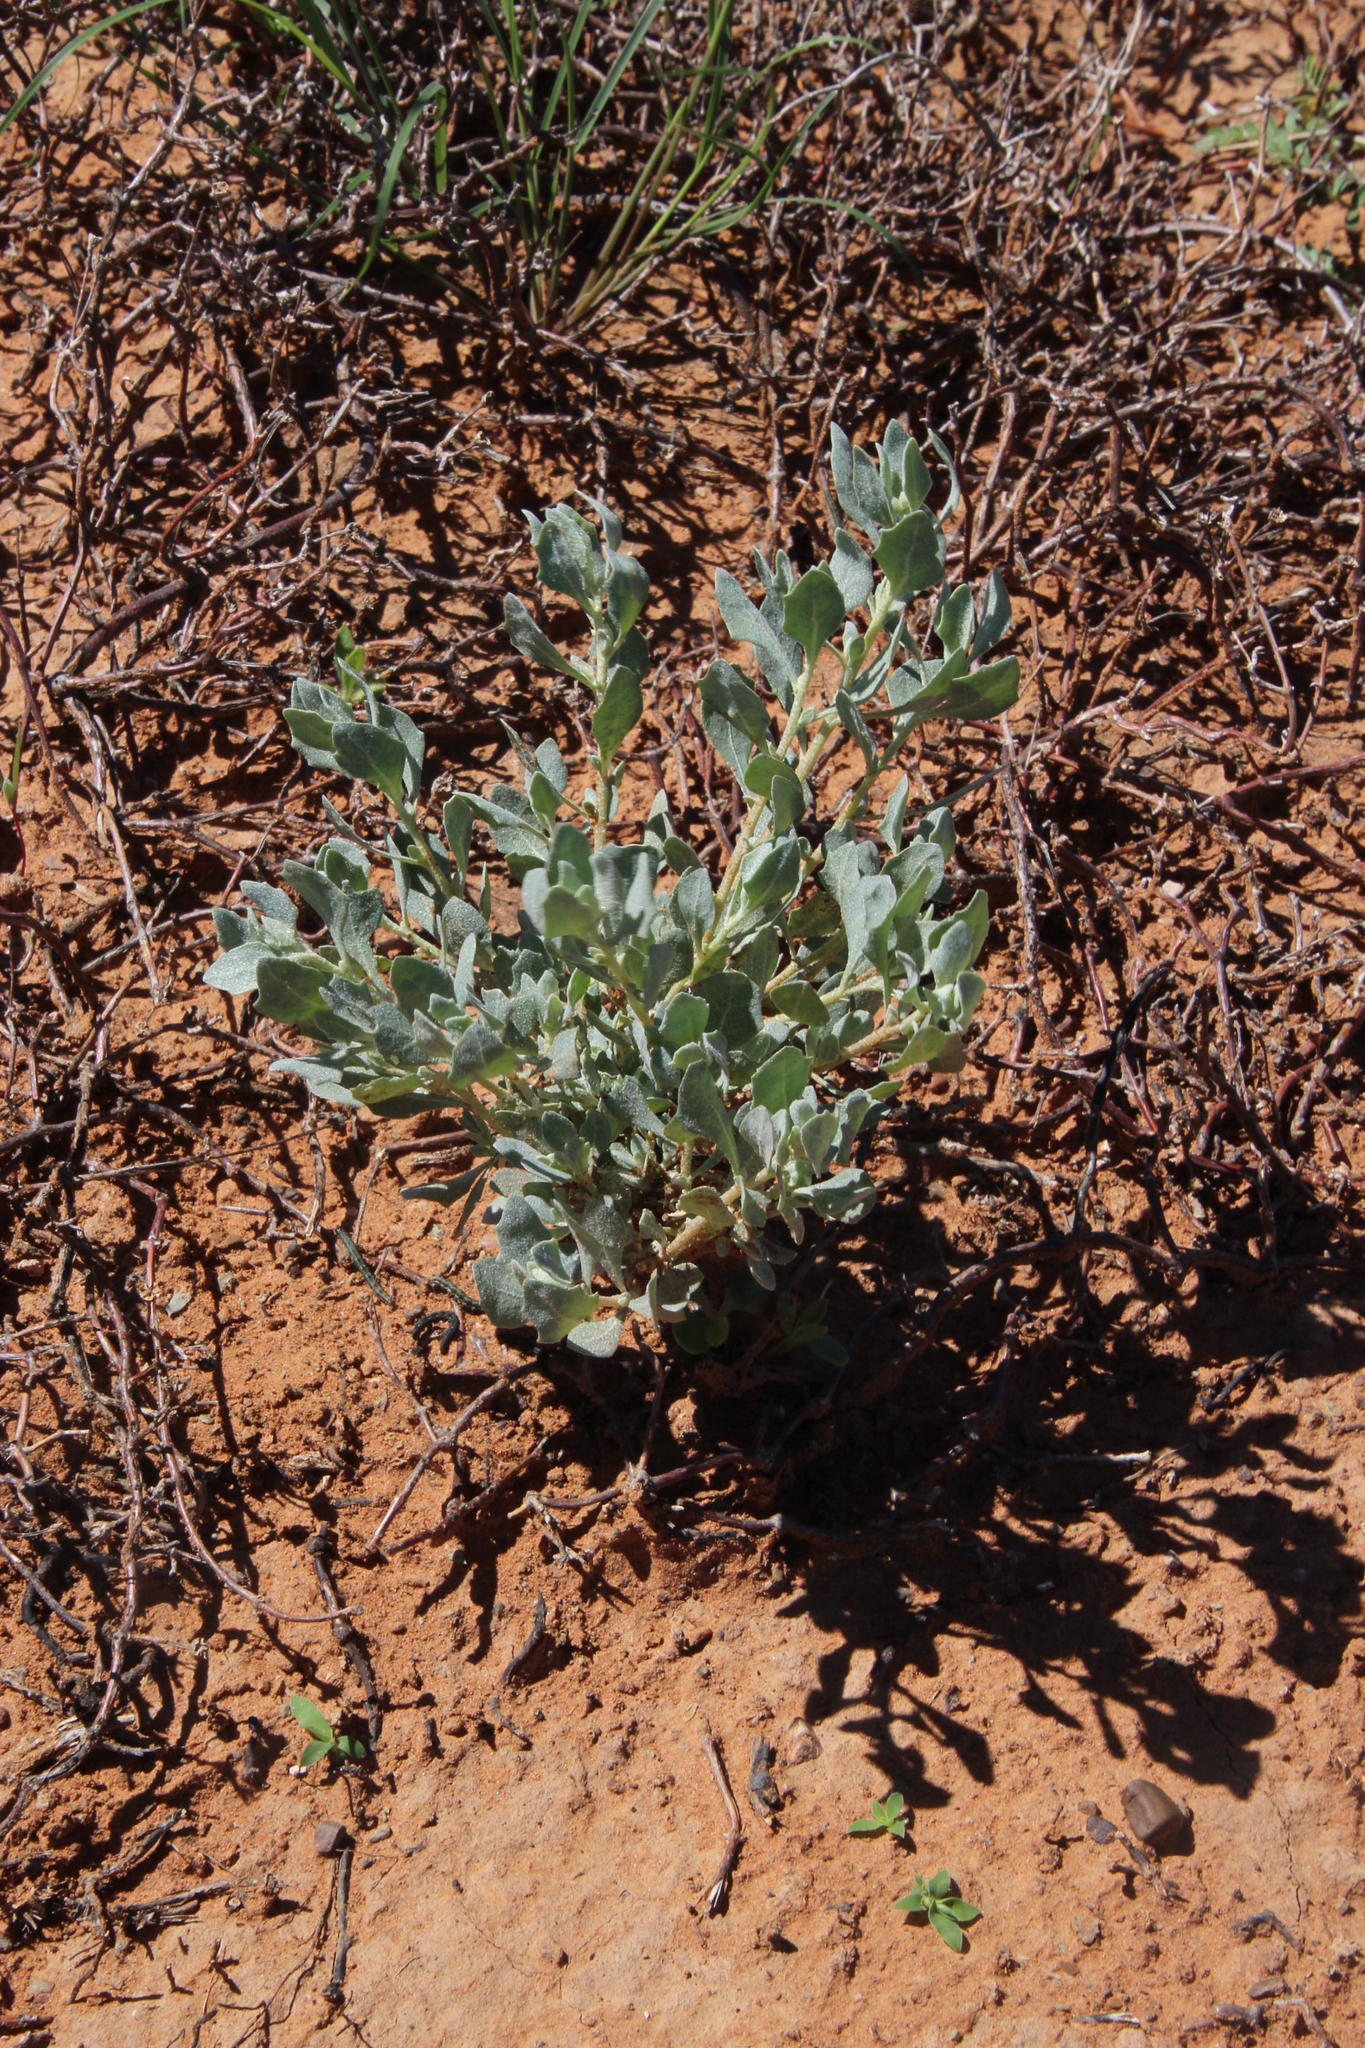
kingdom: Plantae
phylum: Tracheophyta
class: Magnoliopsida
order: Caryophyllales
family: Amaranthaceae
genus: Atriplex
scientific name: Atriplex lindleyi
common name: Lindley's saltbush
